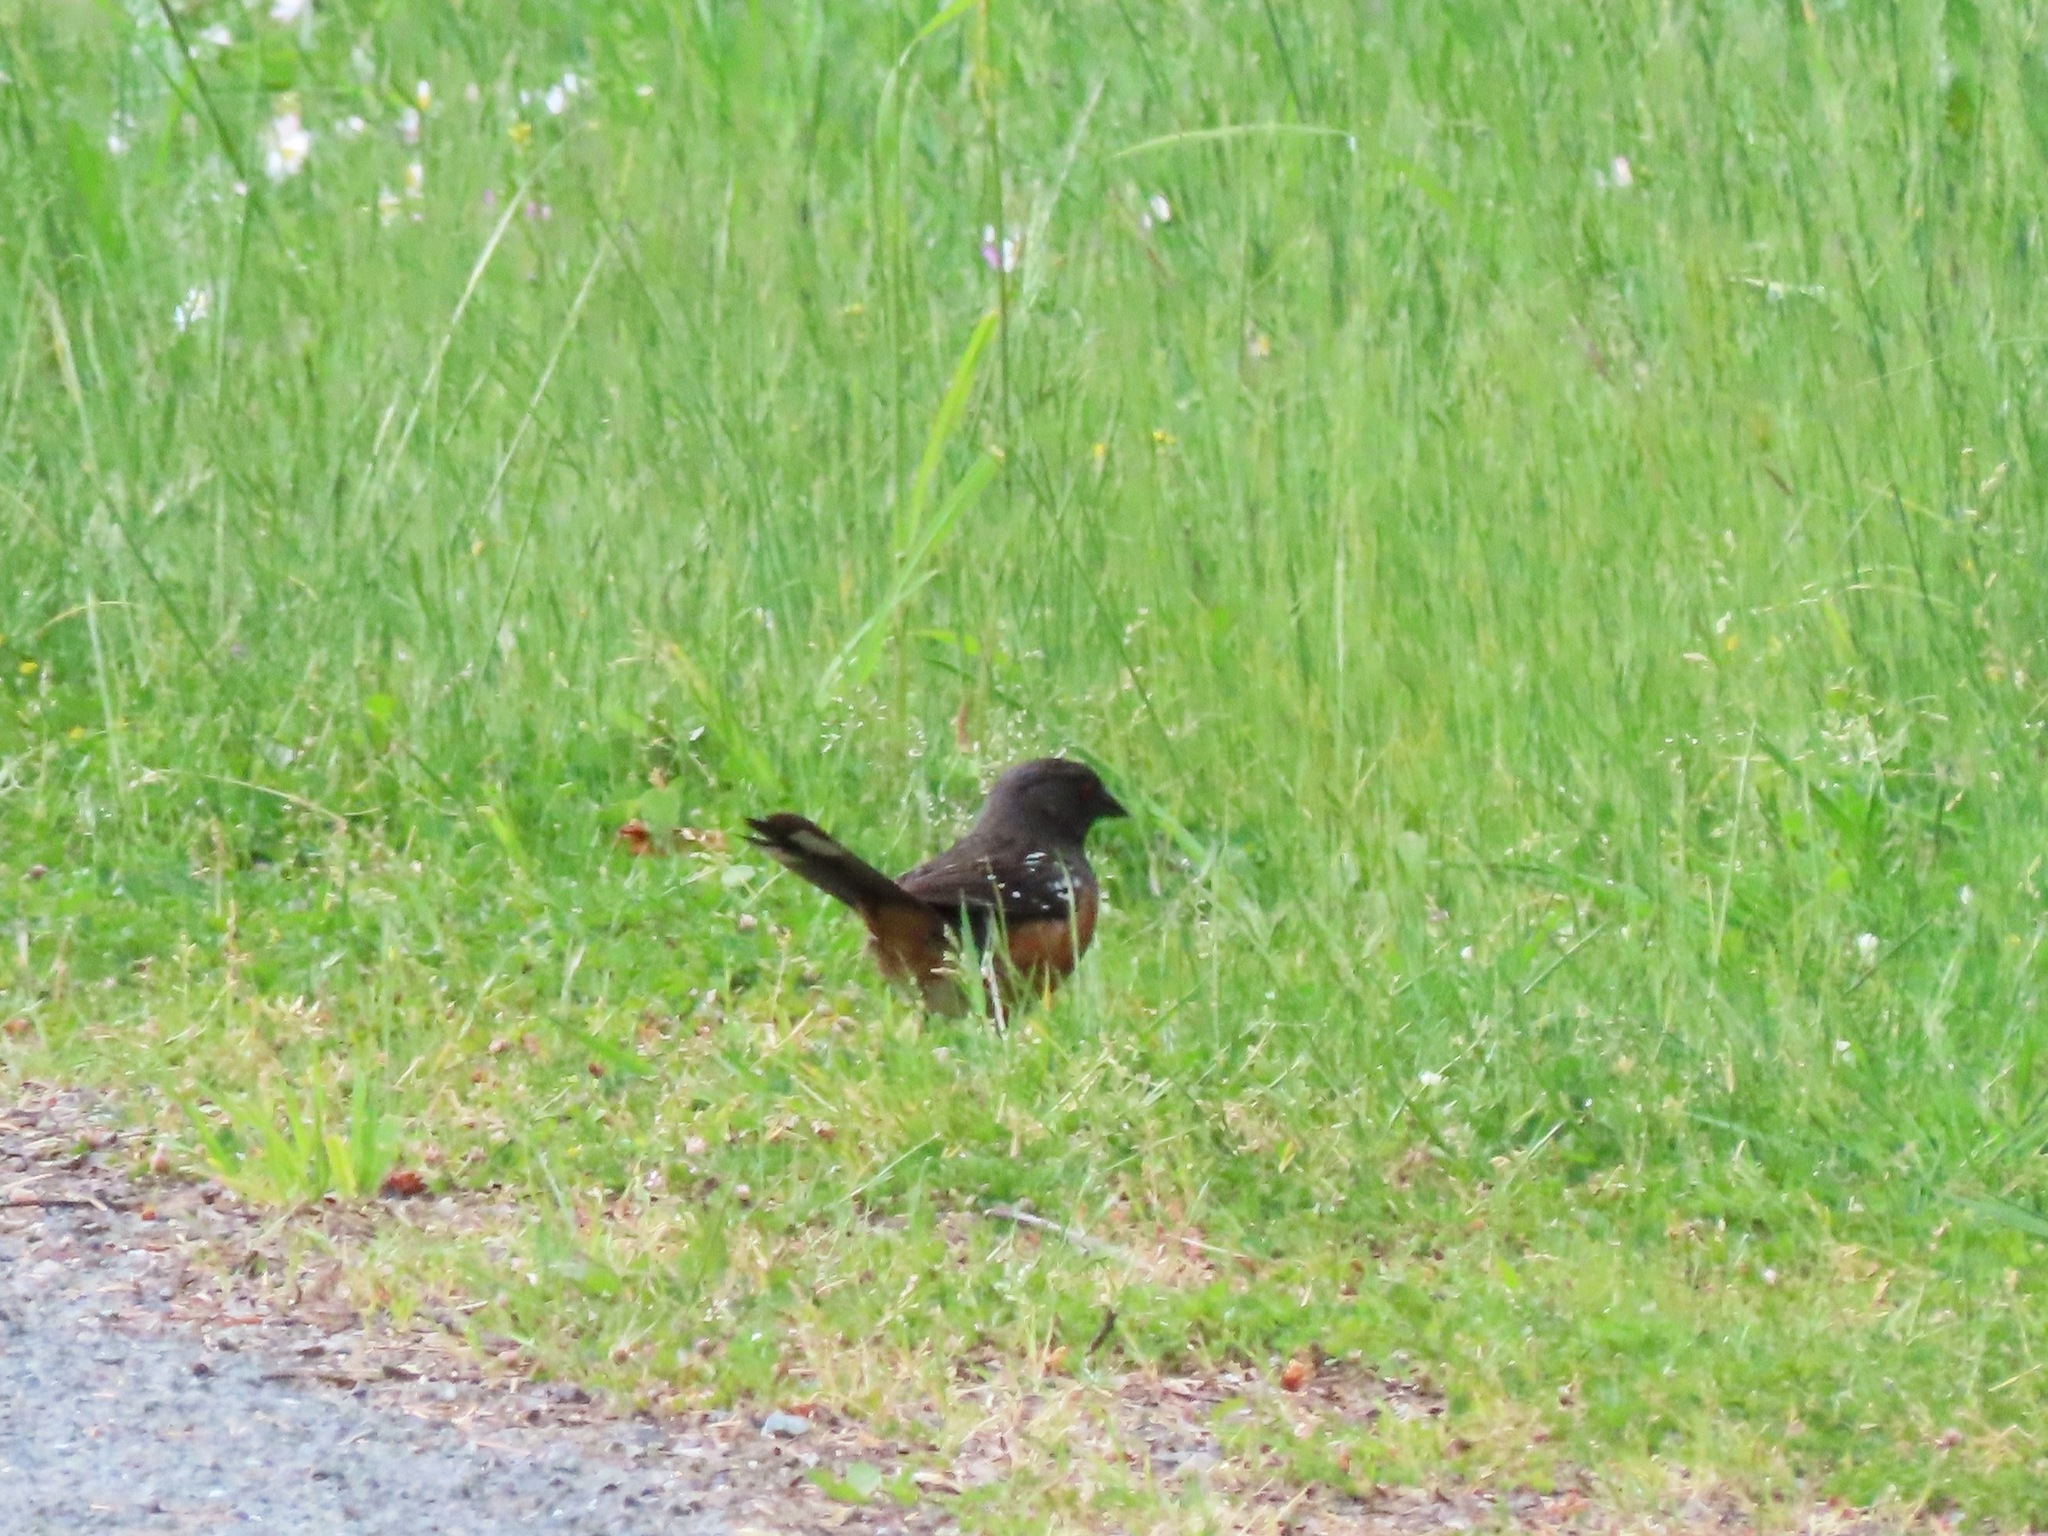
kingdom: Animalia
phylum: Chordata
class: Aves
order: Passeriformes
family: Passerellidae
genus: Pipilo
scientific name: Pipilo maculatus
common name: Spotted towhee
